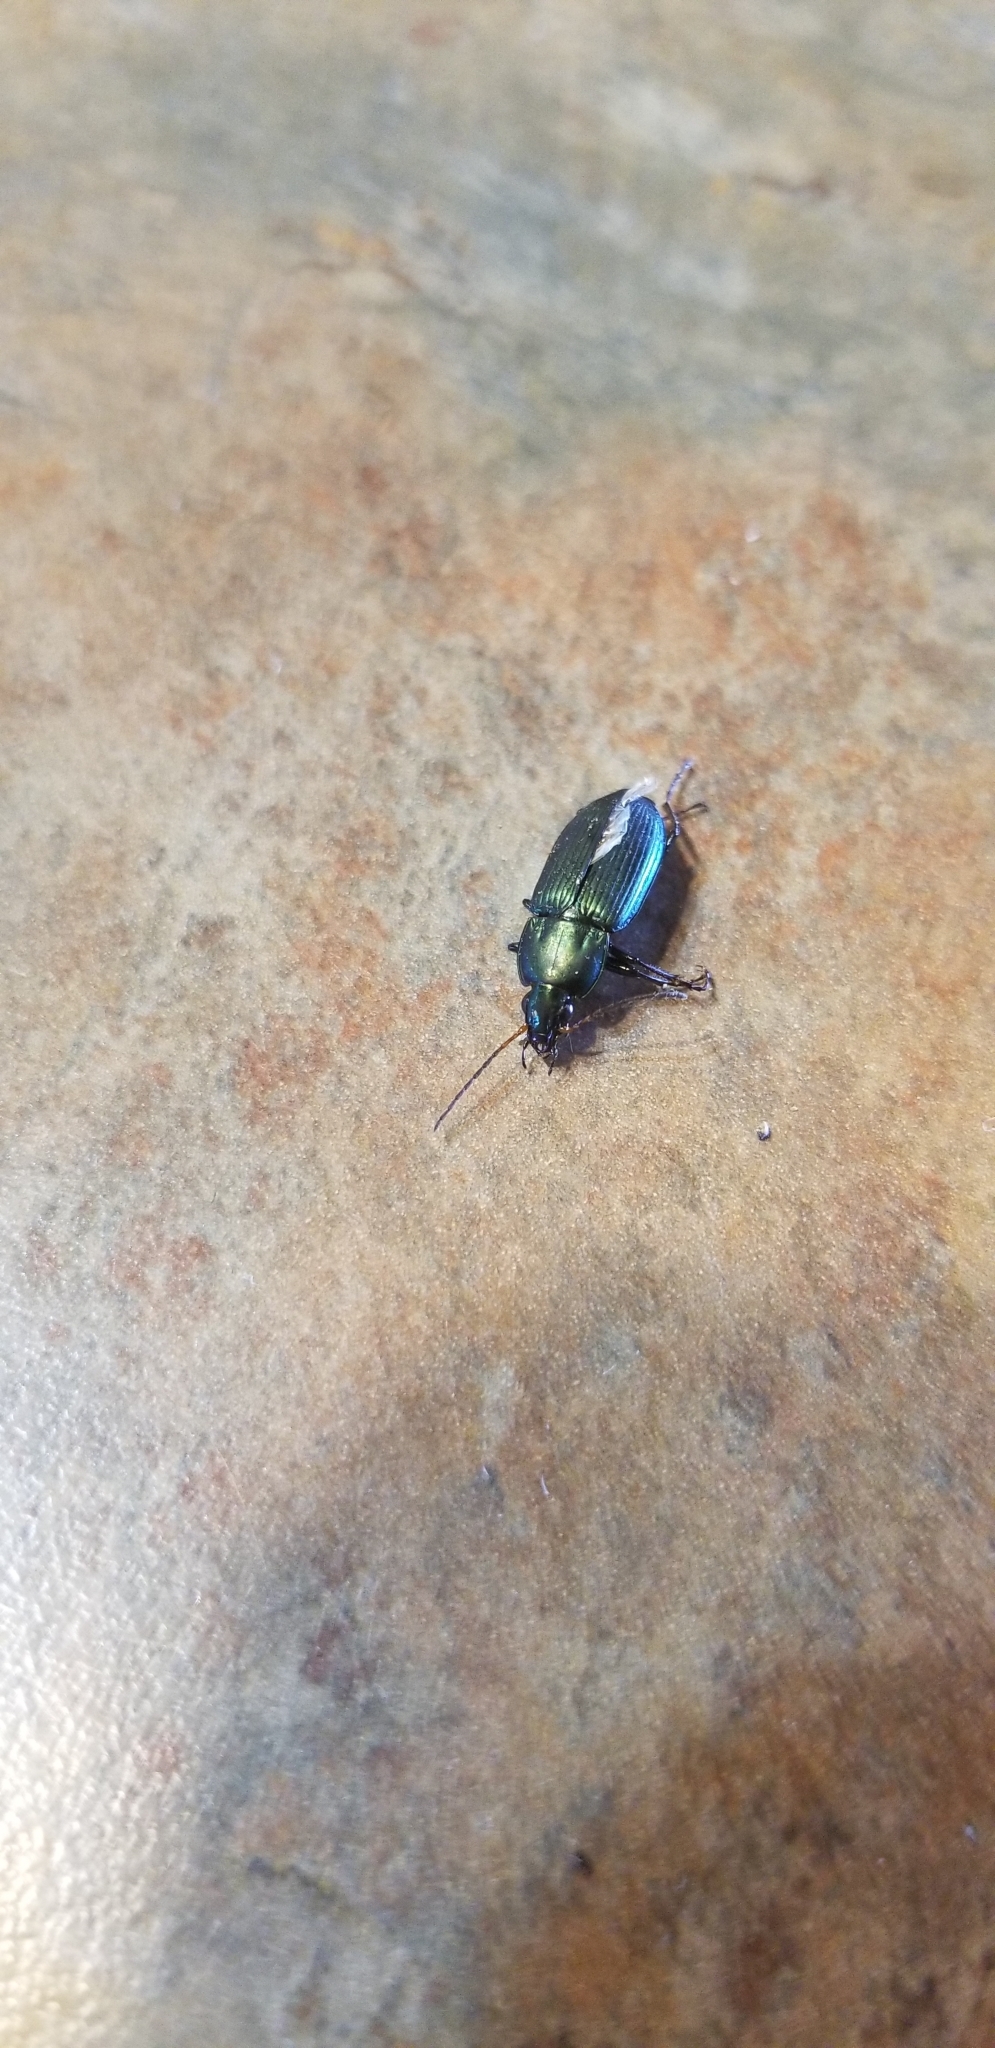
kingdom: Animalia
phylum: Arthropoda
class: Insecta
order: Coleoptera
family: Carabidae
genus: Poecilus
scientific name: Poecilus chalcites
